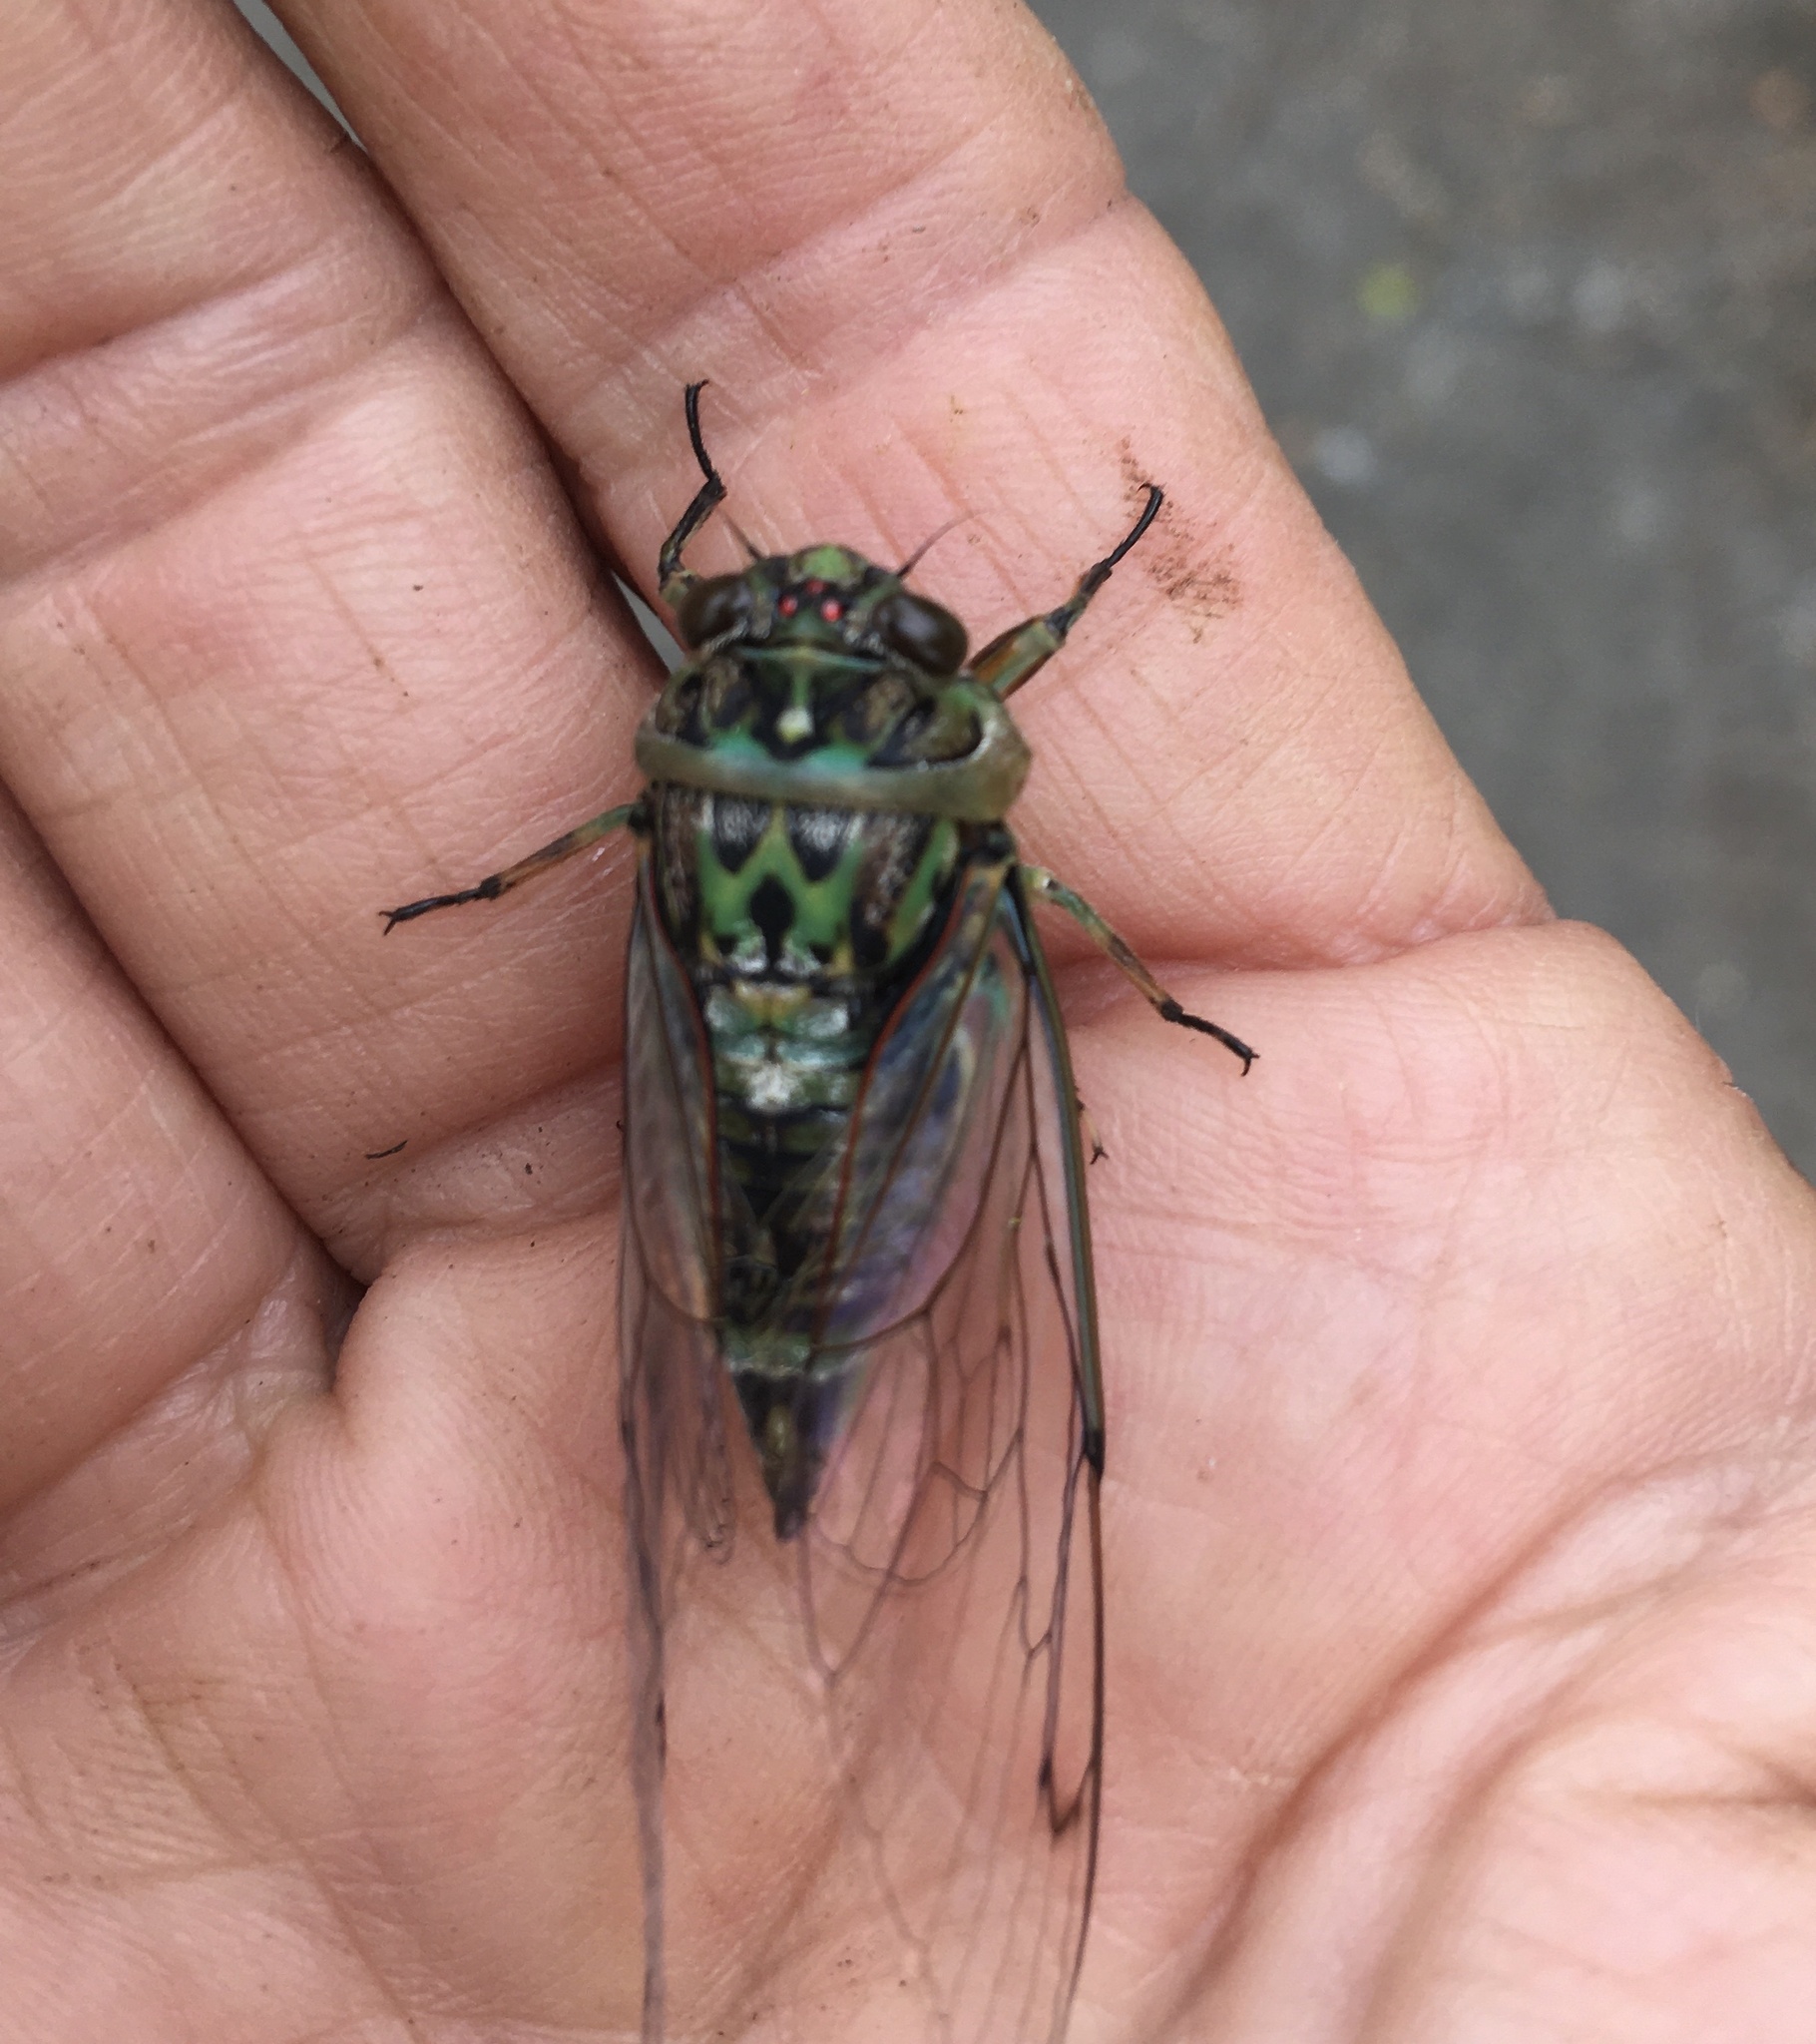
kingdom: Animalia
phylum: Arthropoda
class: Insecta
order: Hemiptera
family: Cicadidae
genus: Amphipsalta
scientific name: Amphipsalta zelandica
